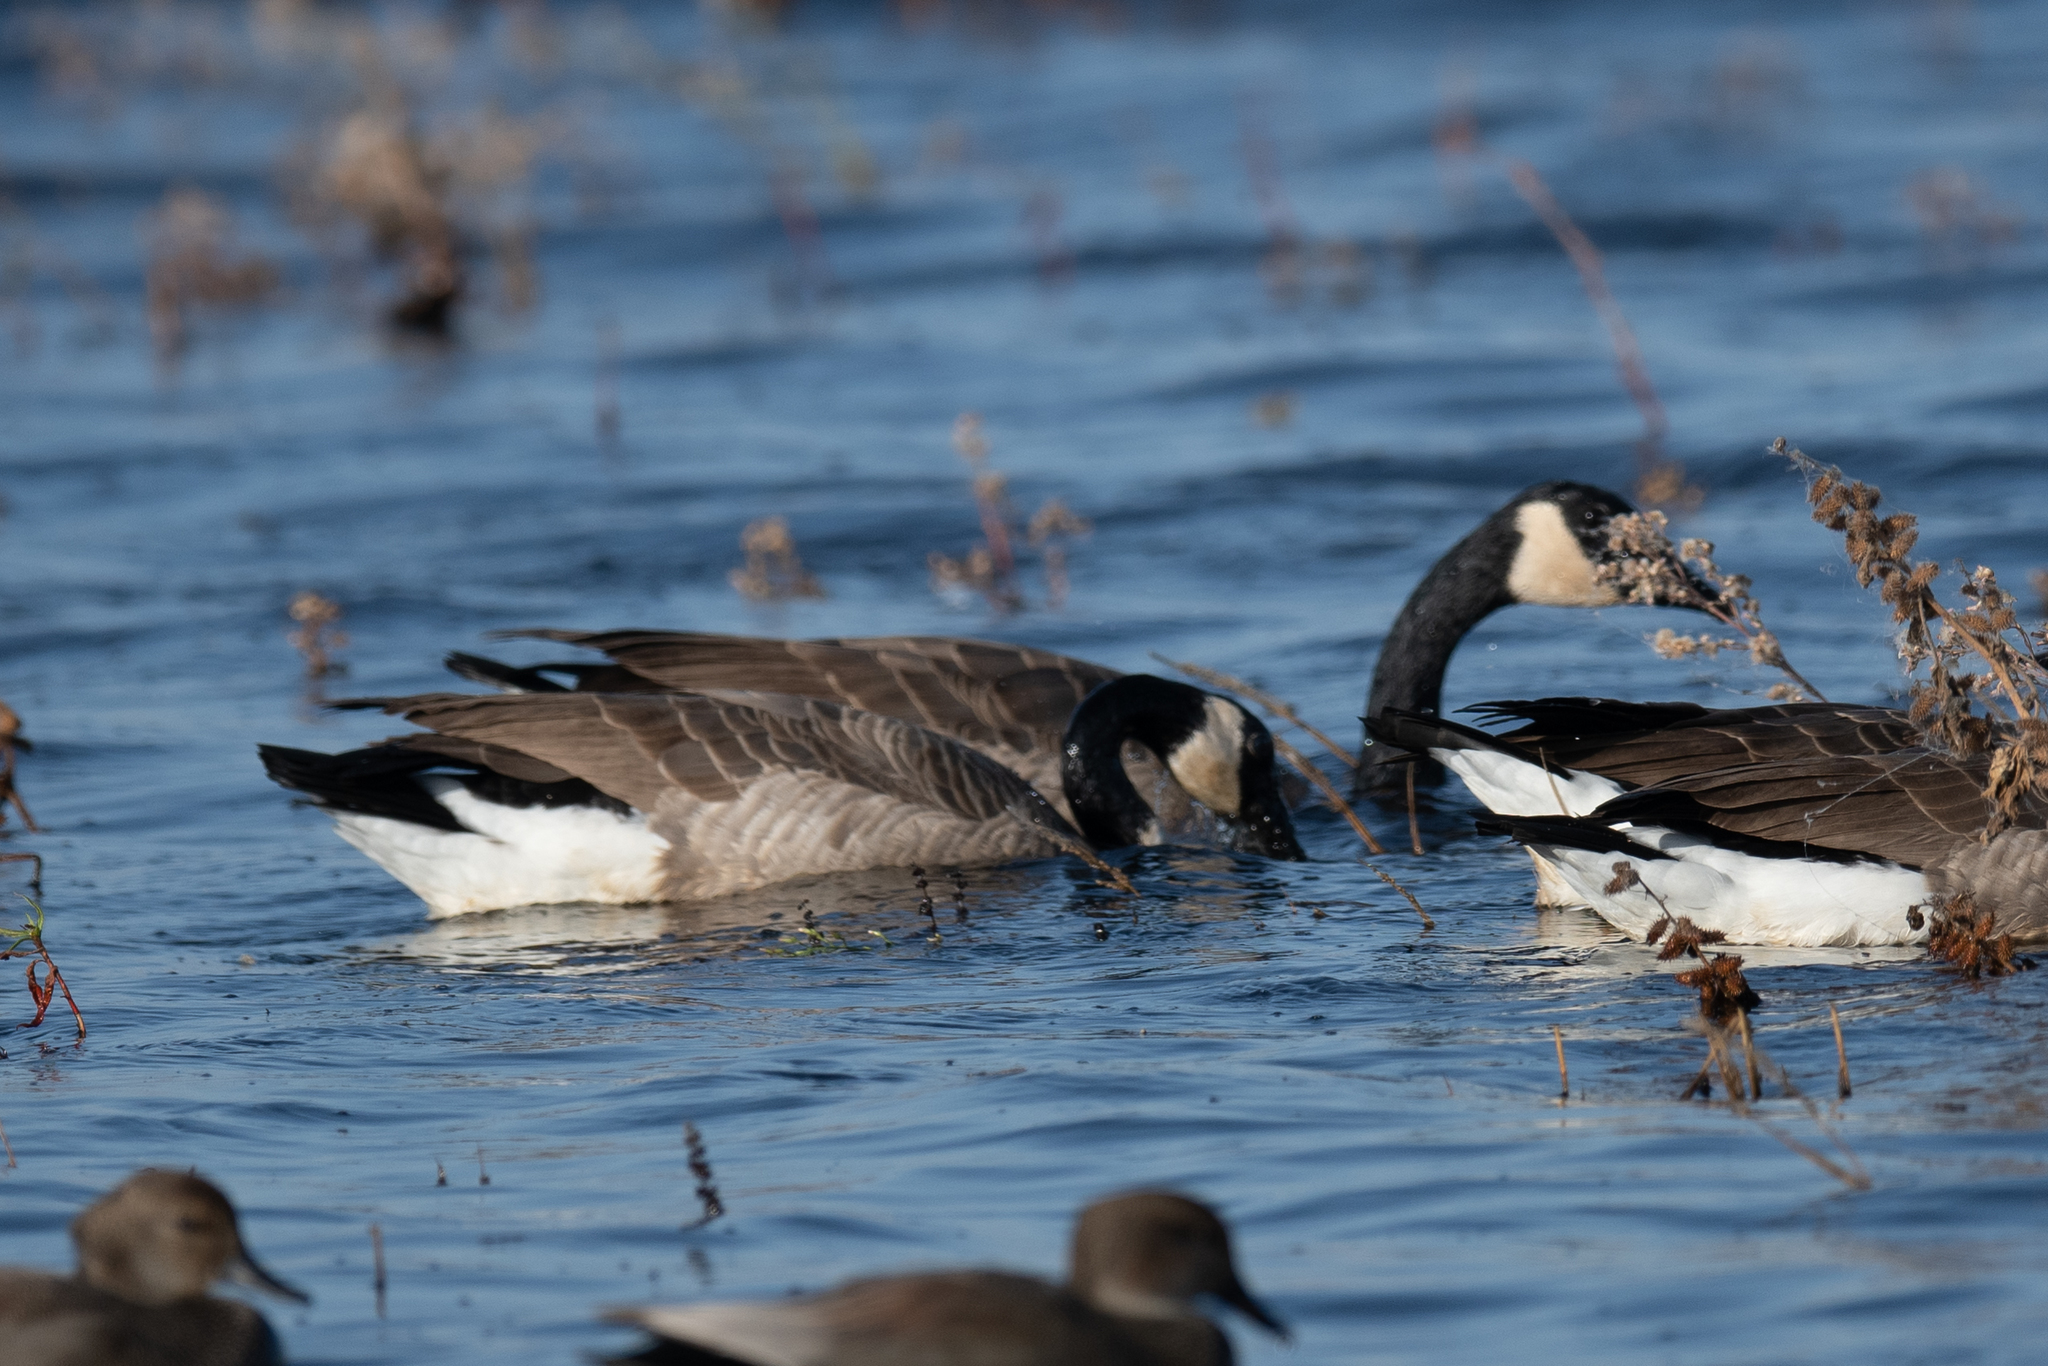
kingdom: Animalia
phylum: Chordata
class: Aves
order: Anseriformes
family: Anatidae
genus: Branta
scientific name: Branta canadensis
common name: Canada goose
